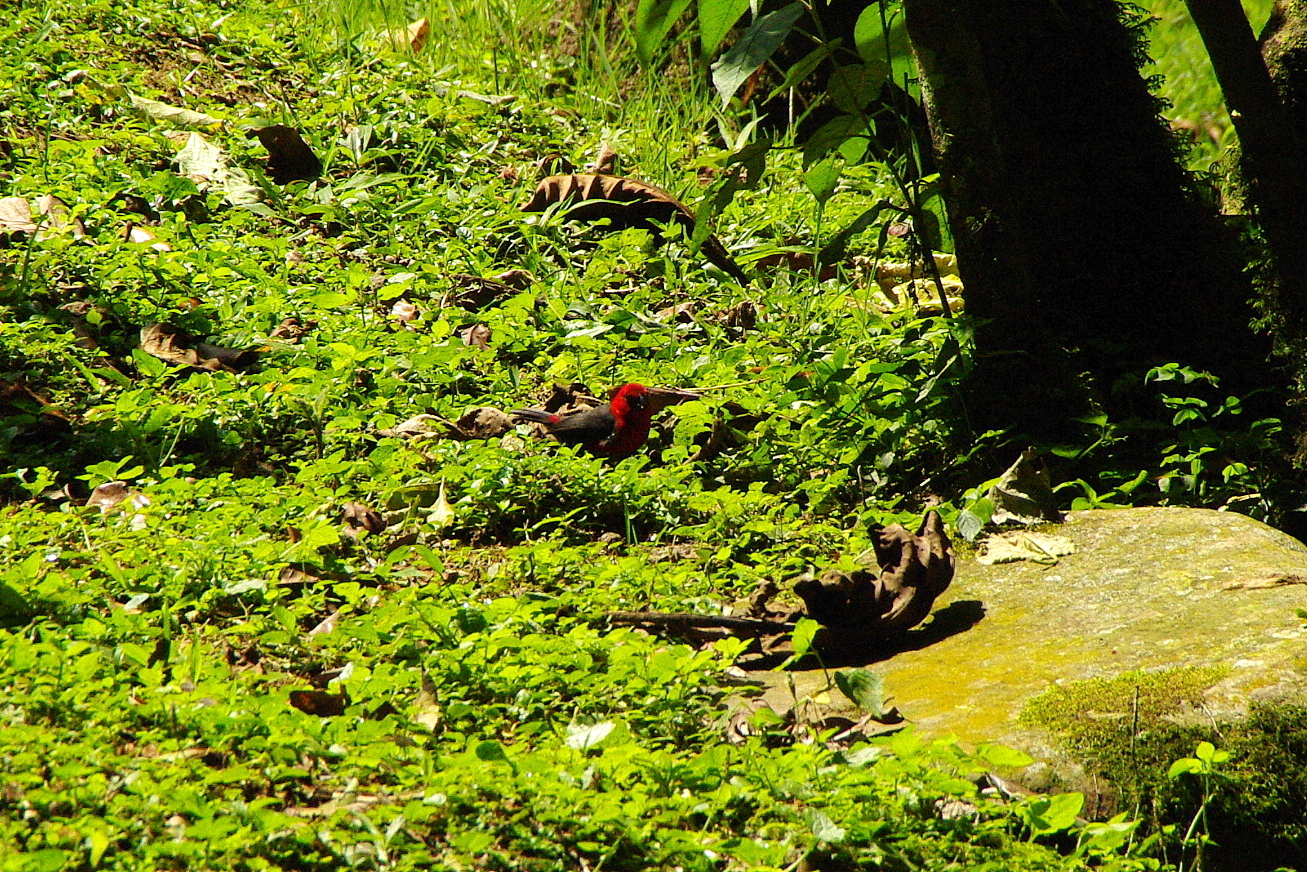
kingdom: Animalia
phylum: Chordata
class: Aves
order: Passeriformes
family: Estrildidae
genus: Spermophaga
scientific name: Spermophaga ruficapilla
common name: Red-headed bluebill
